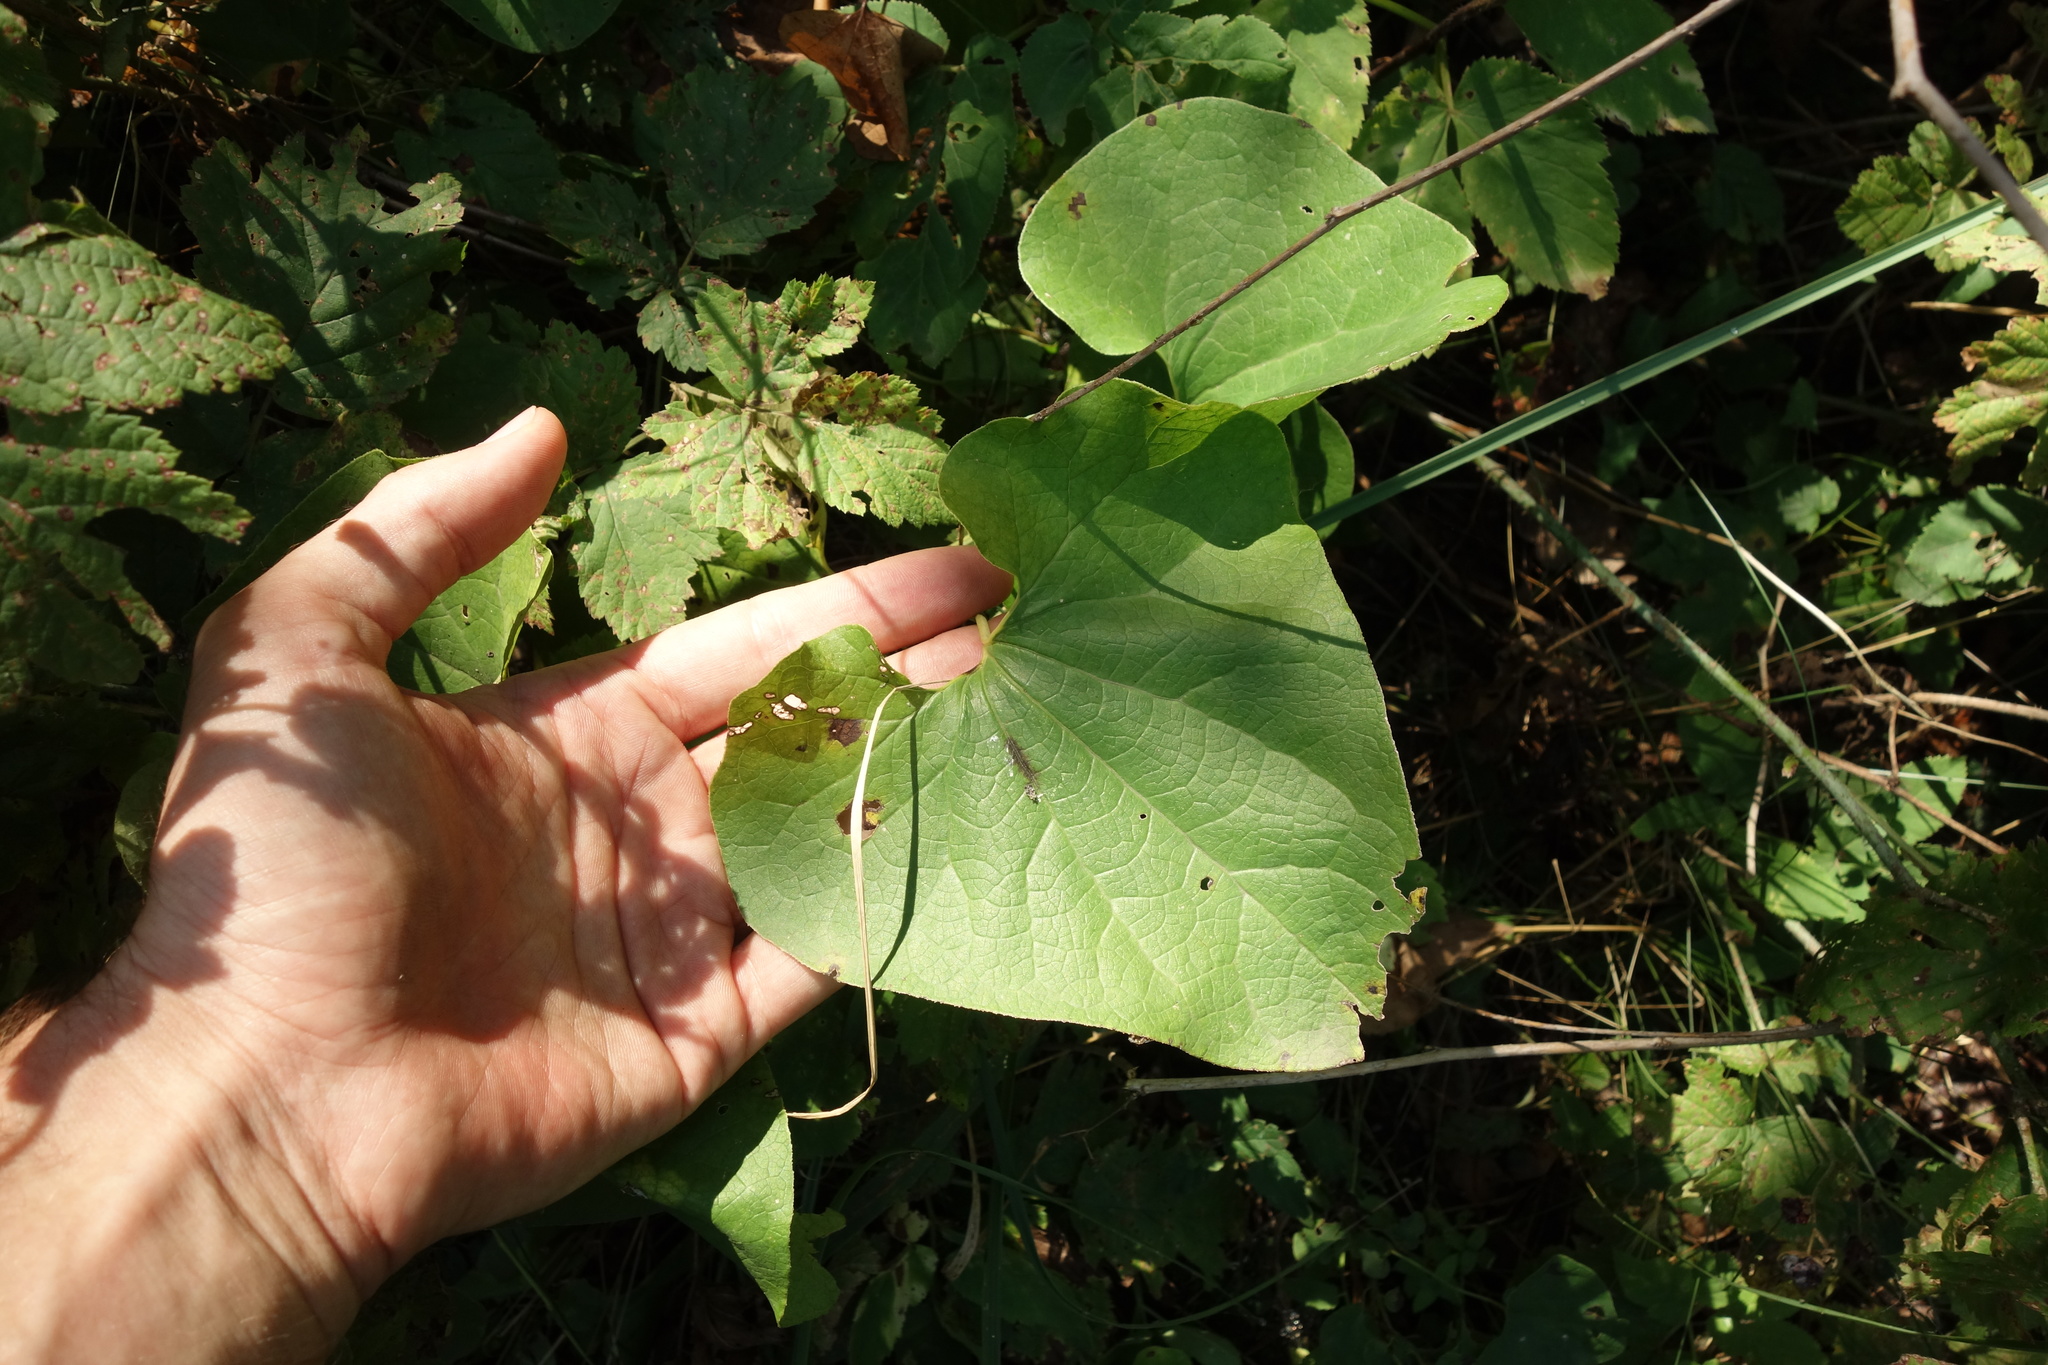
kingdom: Plantae
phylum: Tracheophyta
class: Magnoliopsida
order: Piperales
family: Aristolochiaceae
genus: Aristolochia
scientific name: Aristolochia clematitis
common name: Birthwort
